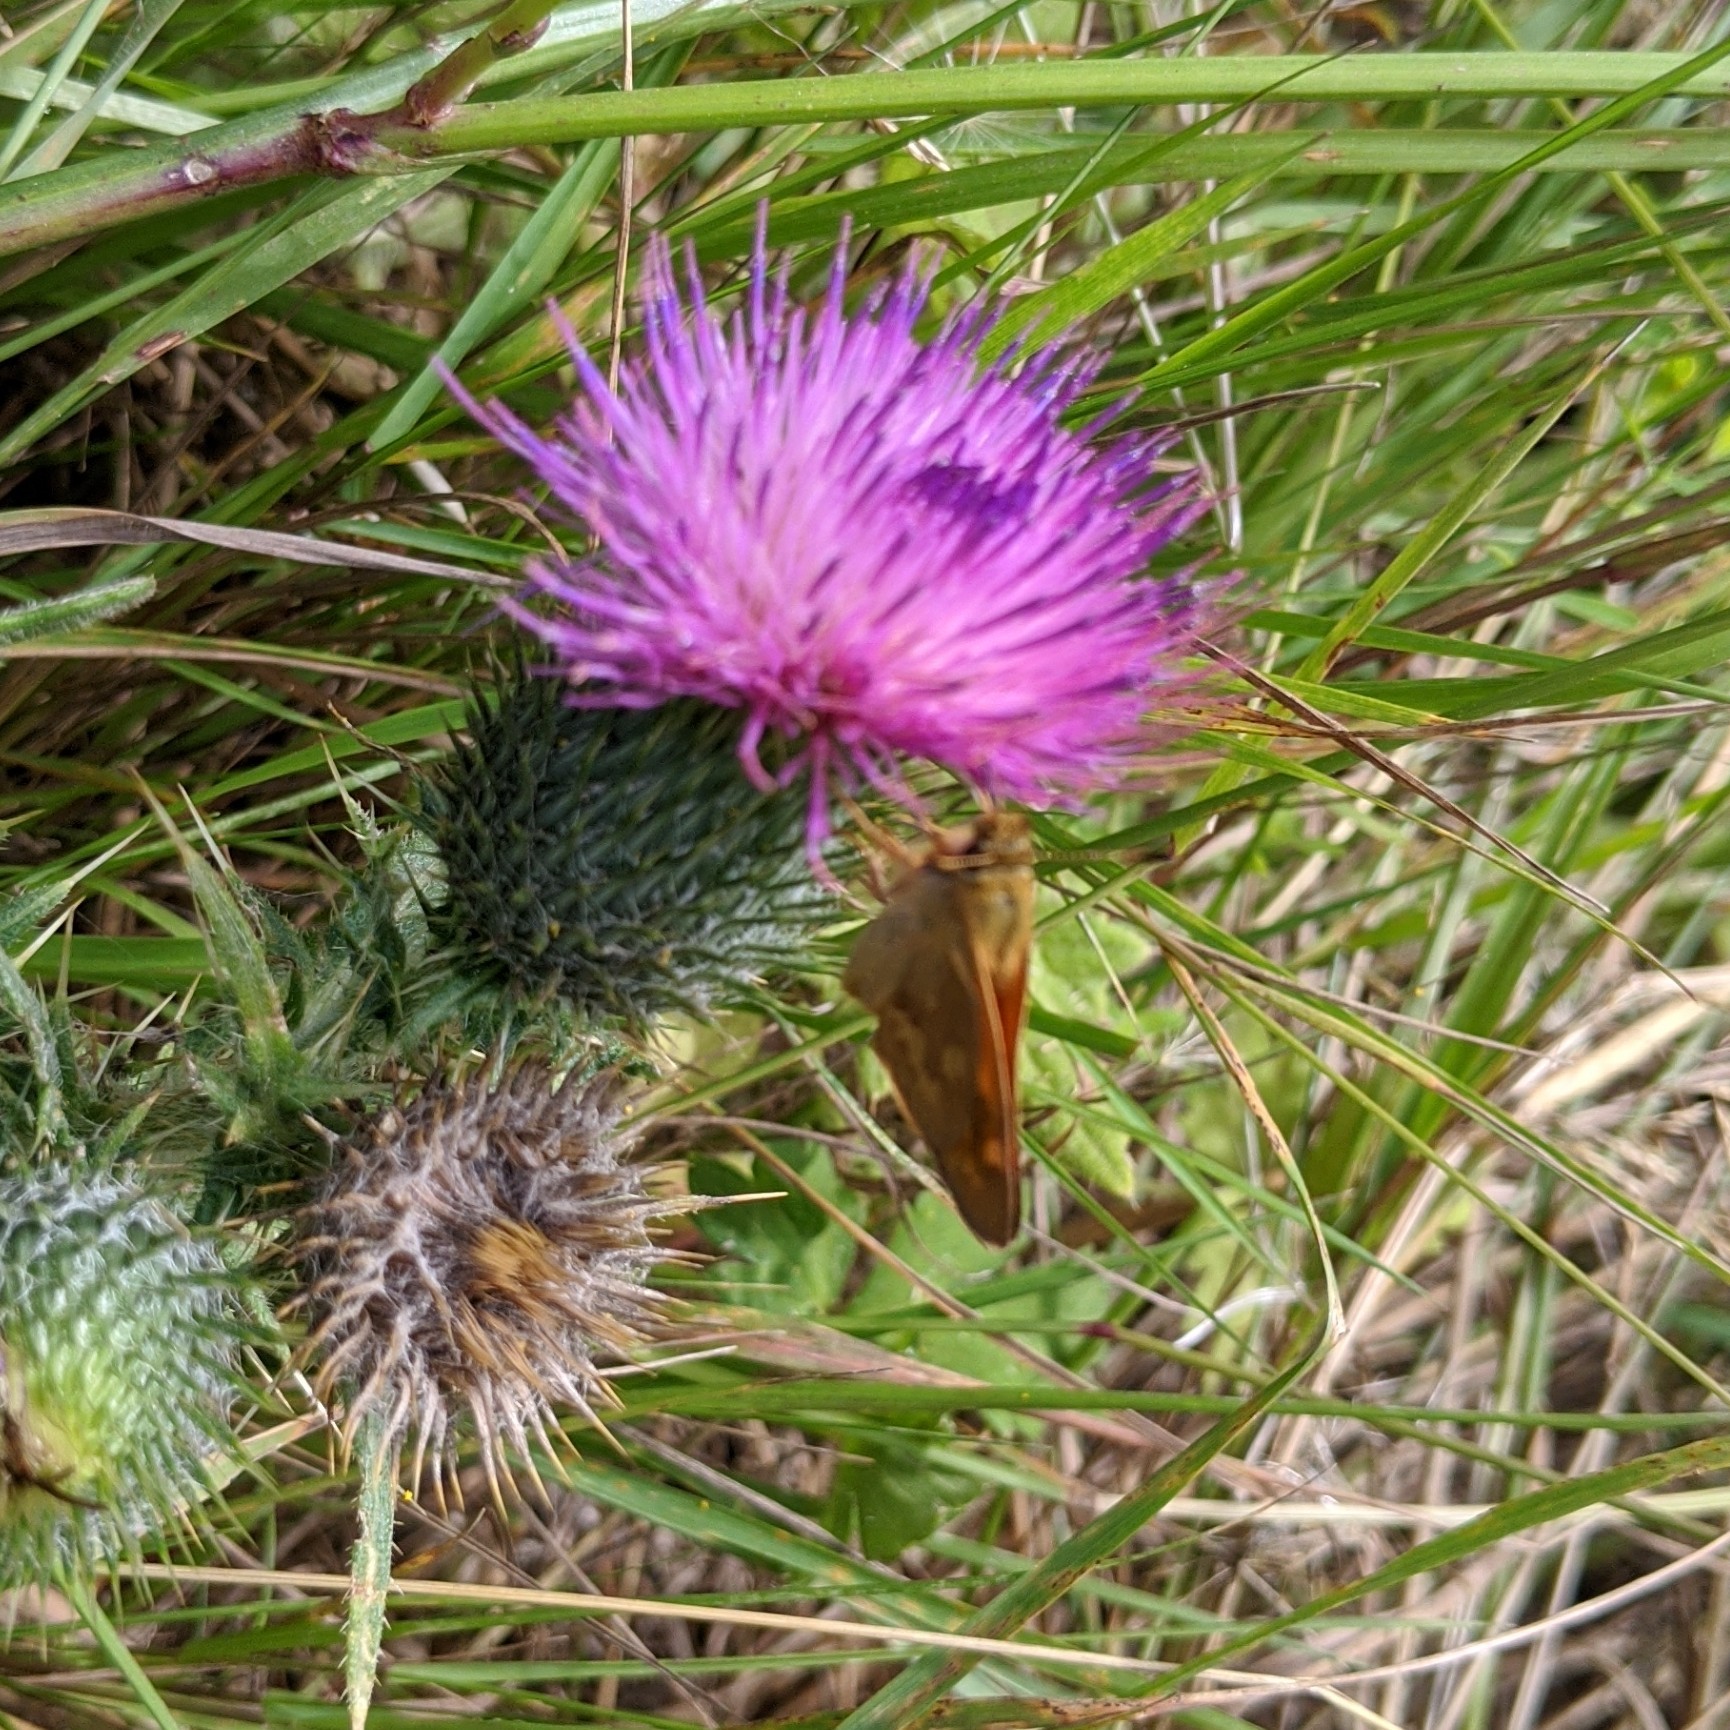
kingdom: Animalia
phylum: Arthropoda
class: Insecta
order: Lepidoptera
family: Hesperiidae
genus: Ochlodes
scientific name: Ochlodes sylvanoides
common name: Woodland skipper
